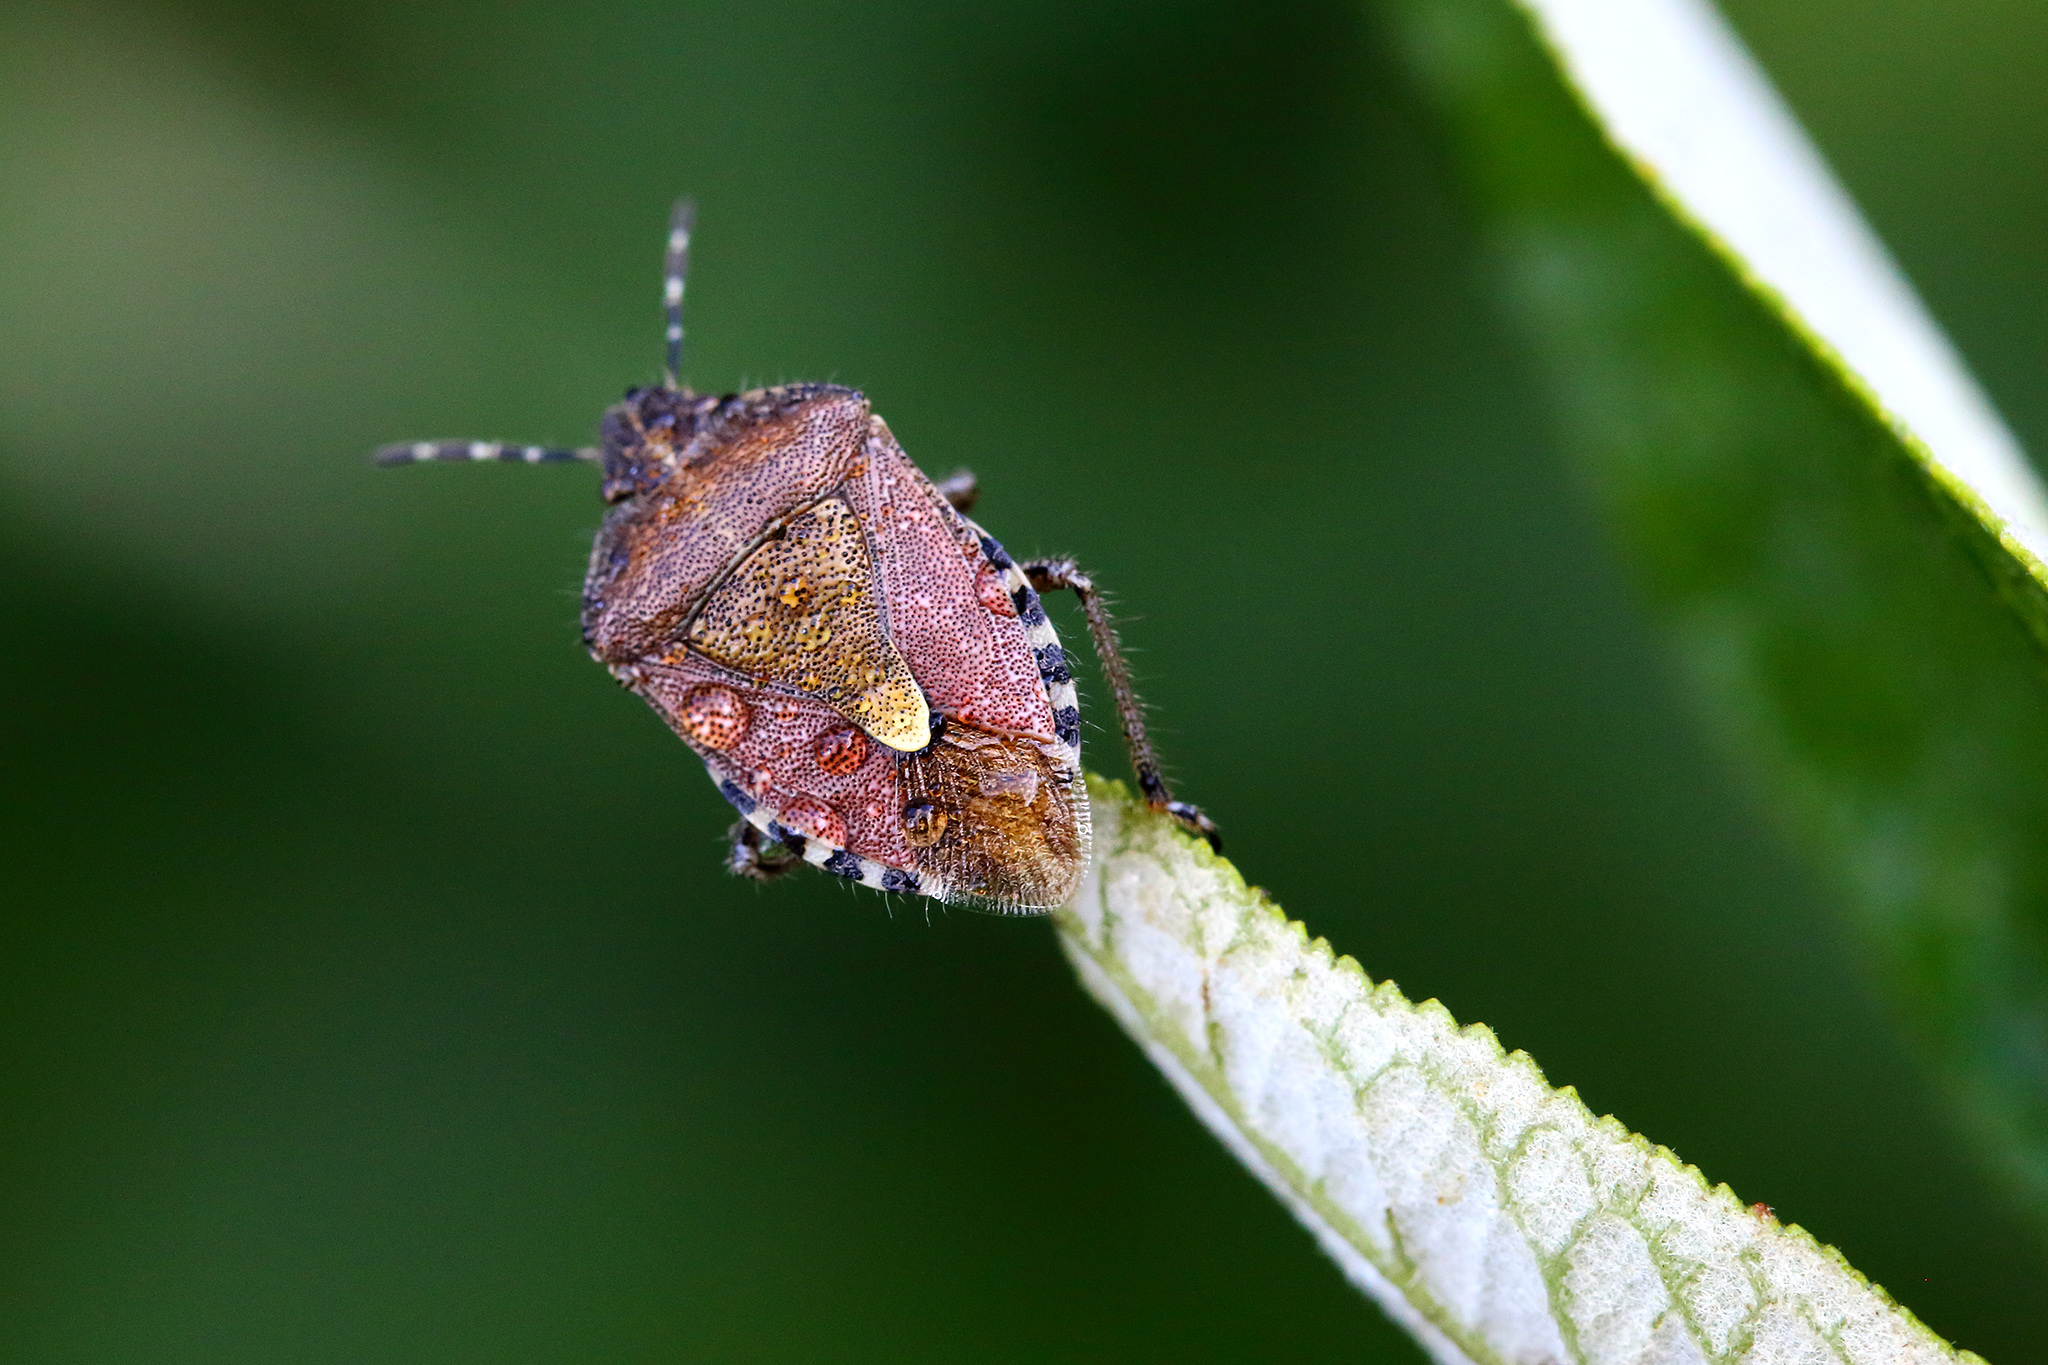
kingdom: Animalia
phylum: Arthropoda
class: Insecta
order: Hemiptera
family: Pentatomidae
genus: Dolycoris
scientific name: Dolycoris baccarum
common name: Sloe bug
